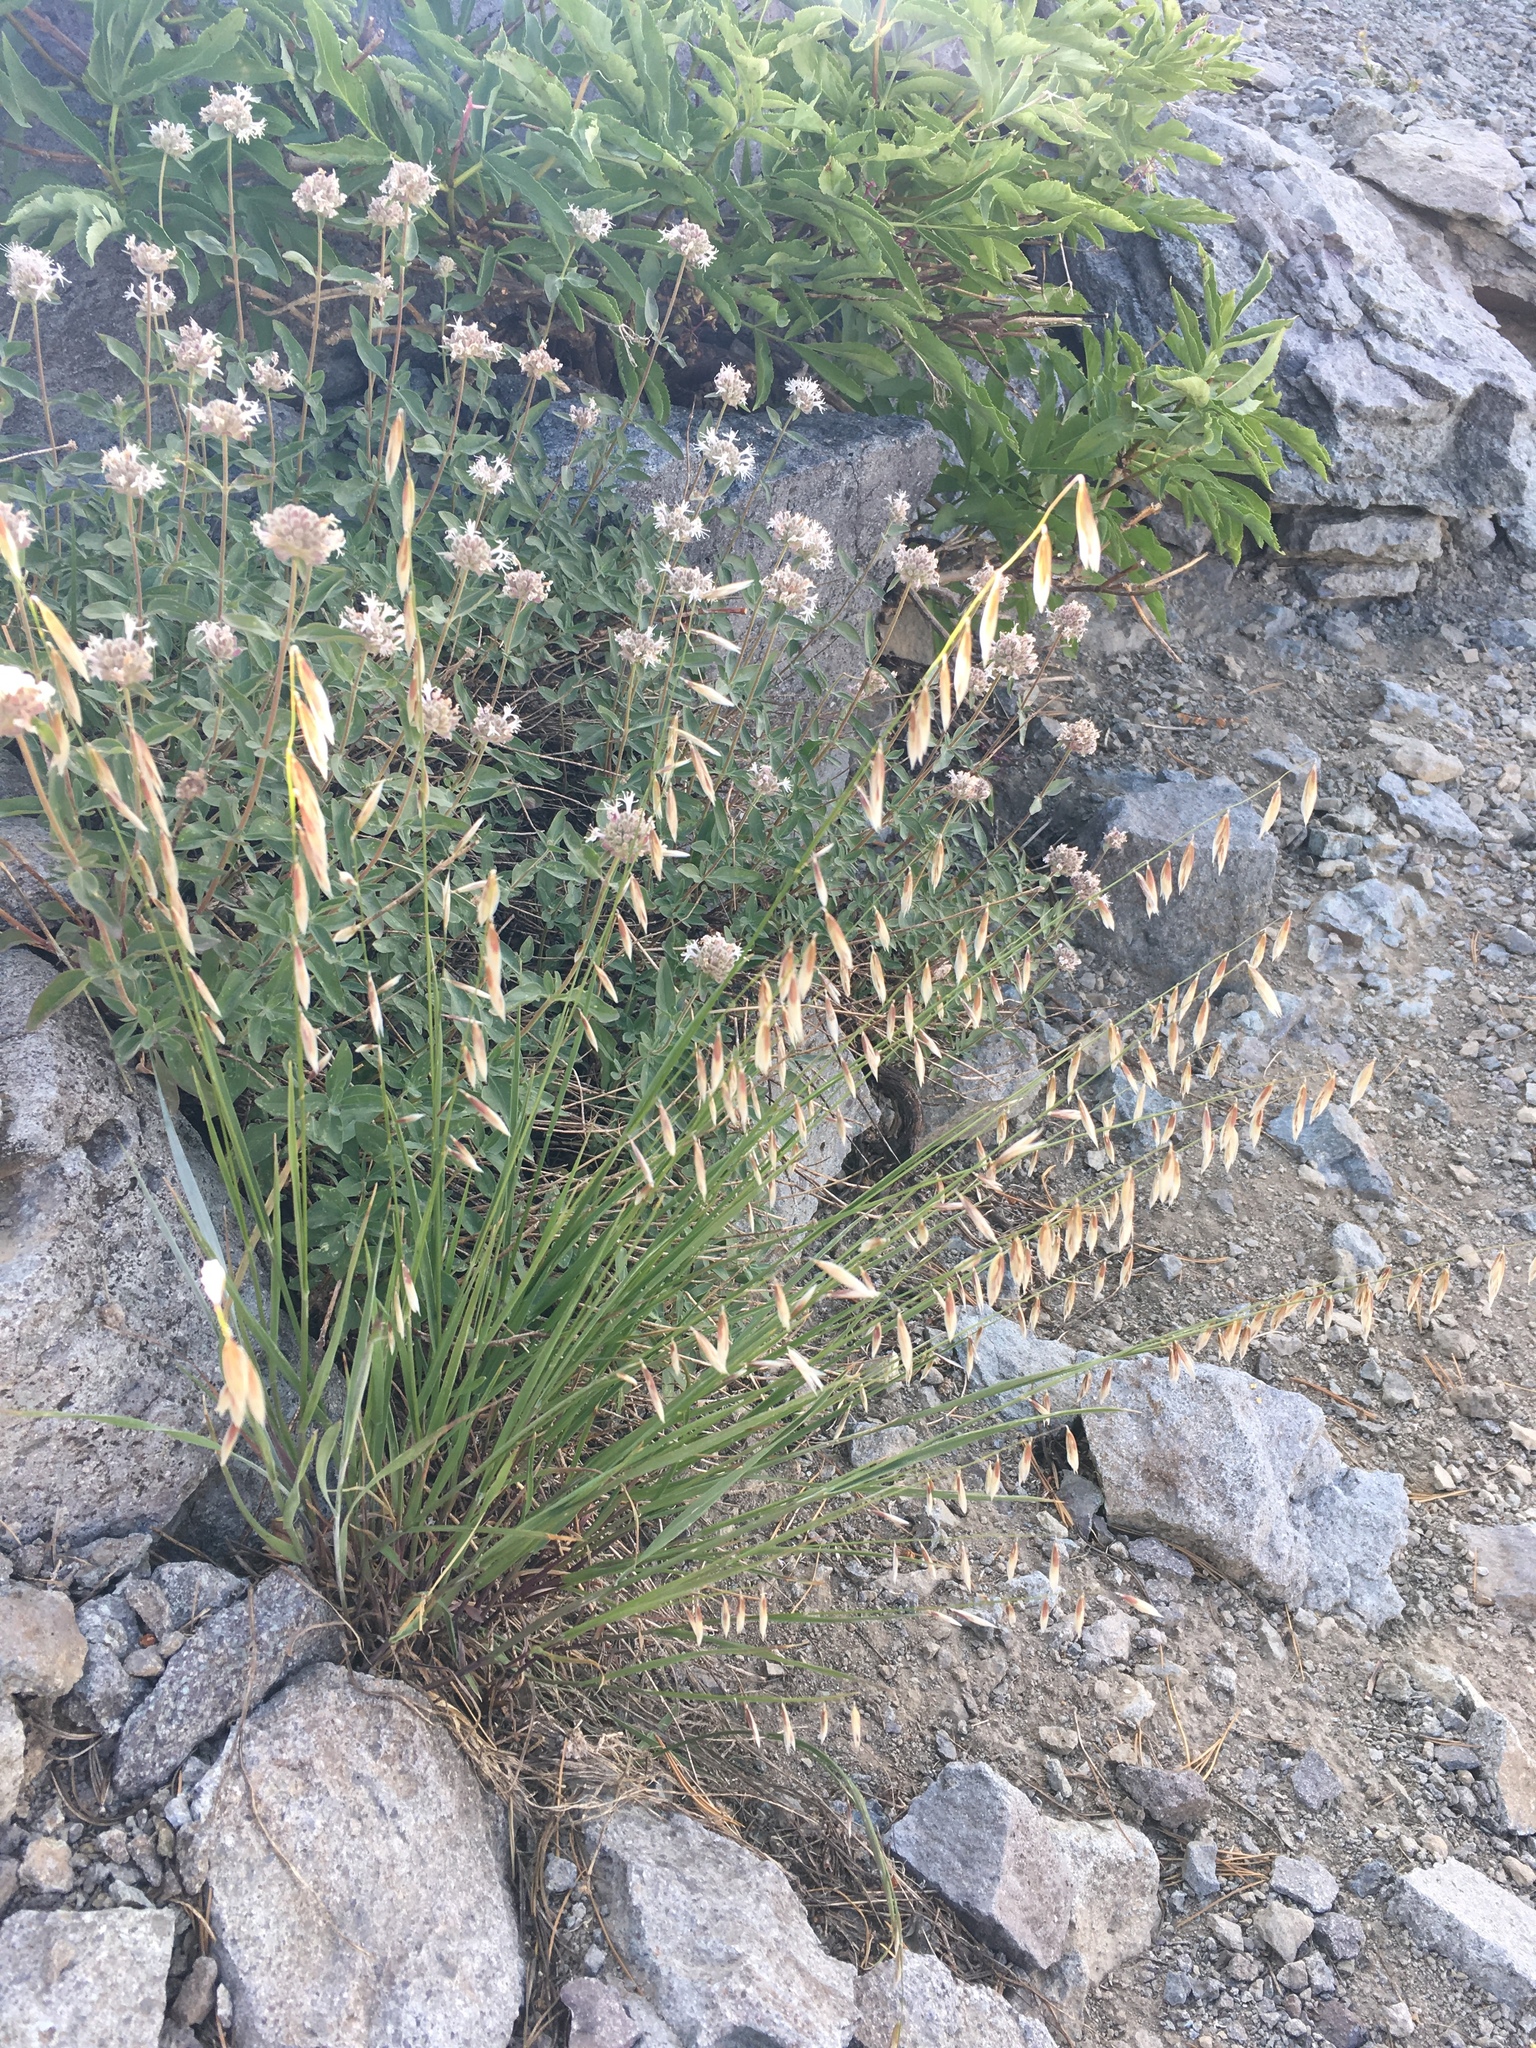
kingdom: Plantae
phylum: Tracheophyta
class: Liliopsida
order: Poales
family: Poaceae
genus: Melica
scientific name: Melica stricta
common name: Rock melic
